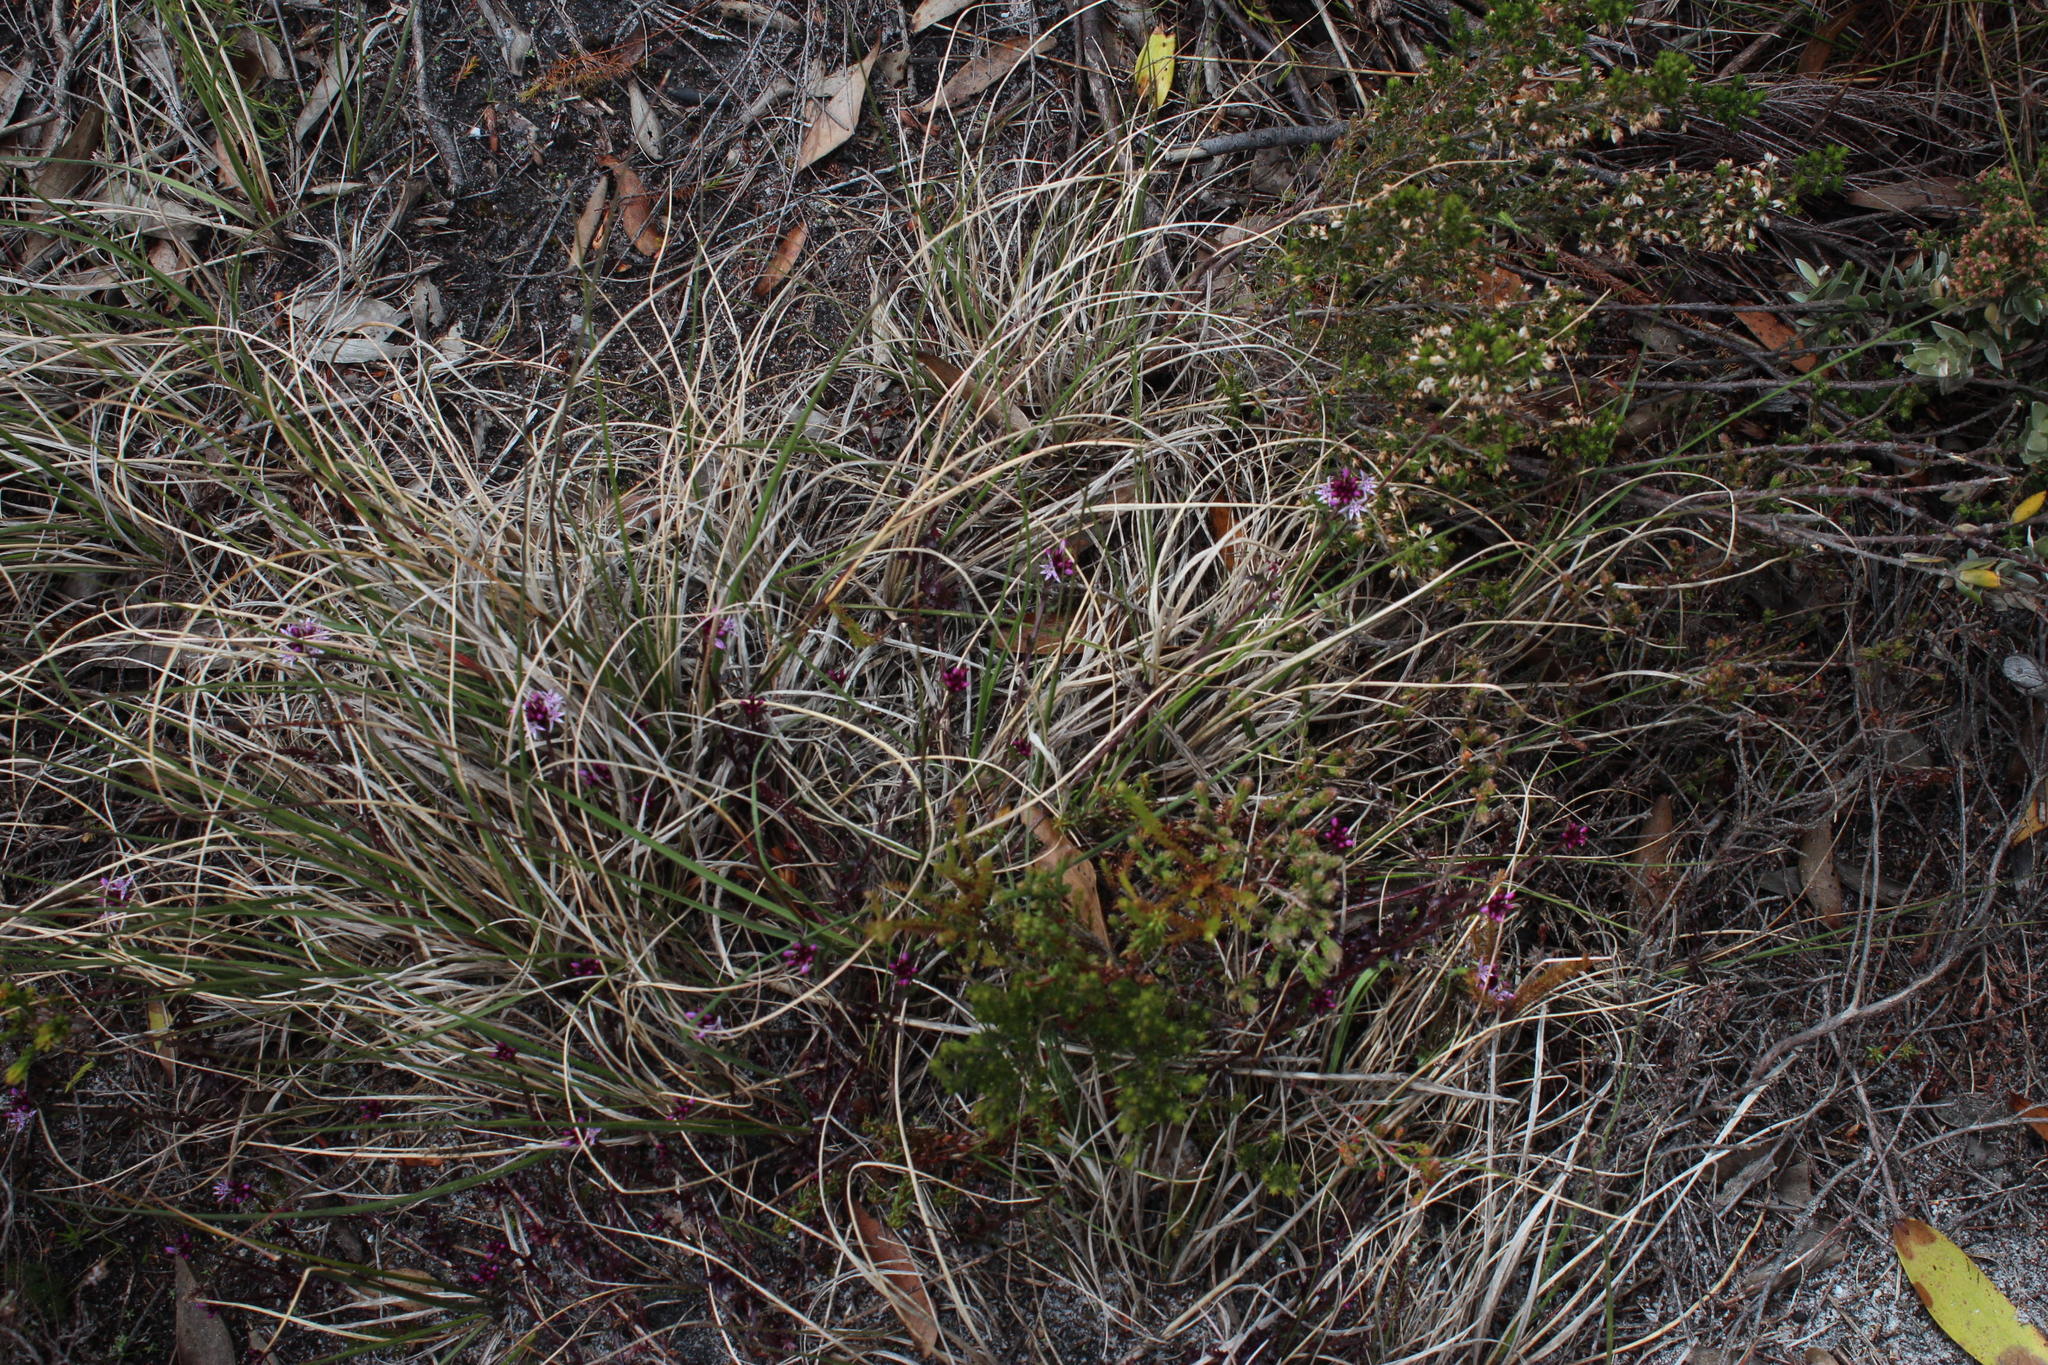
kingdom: Plantae
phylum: Tracheophyta
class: Magnoliopsida
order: Asterales
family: Campanulaceae
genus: Lobelia
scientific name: Lobelia jasionoides
